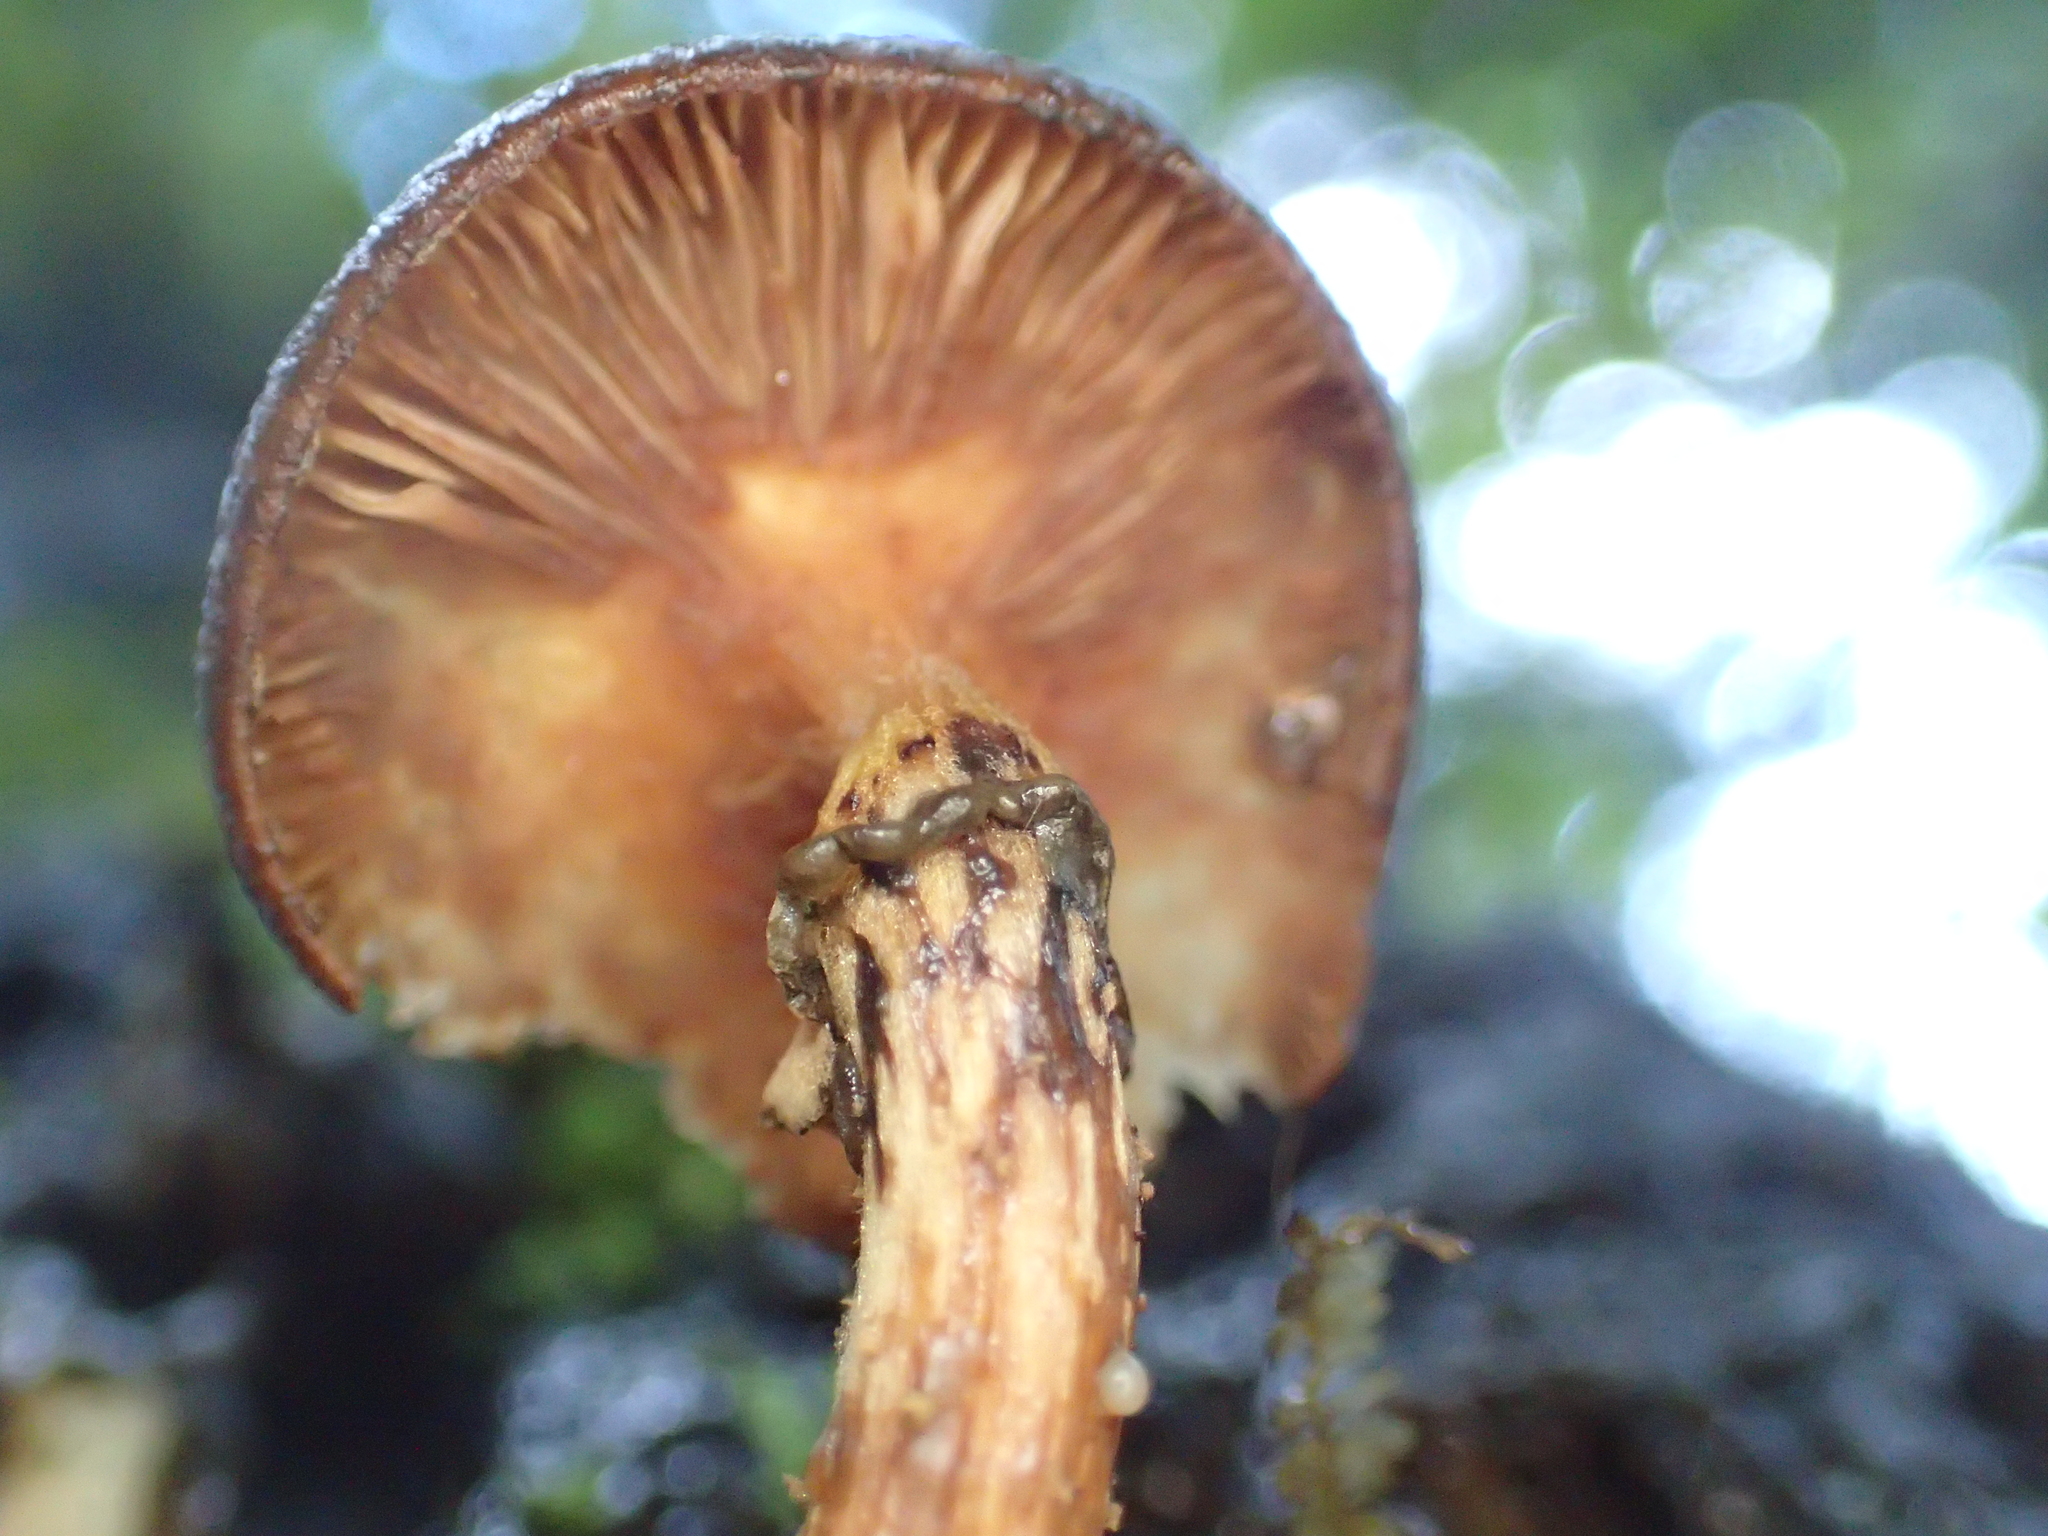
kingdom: Fungi
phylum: Basidiomycota
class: Agaricomycetes
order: Agaricales
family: Physalacriaceae
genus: Armillaria
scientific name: Armillaria novae-zelandiae
